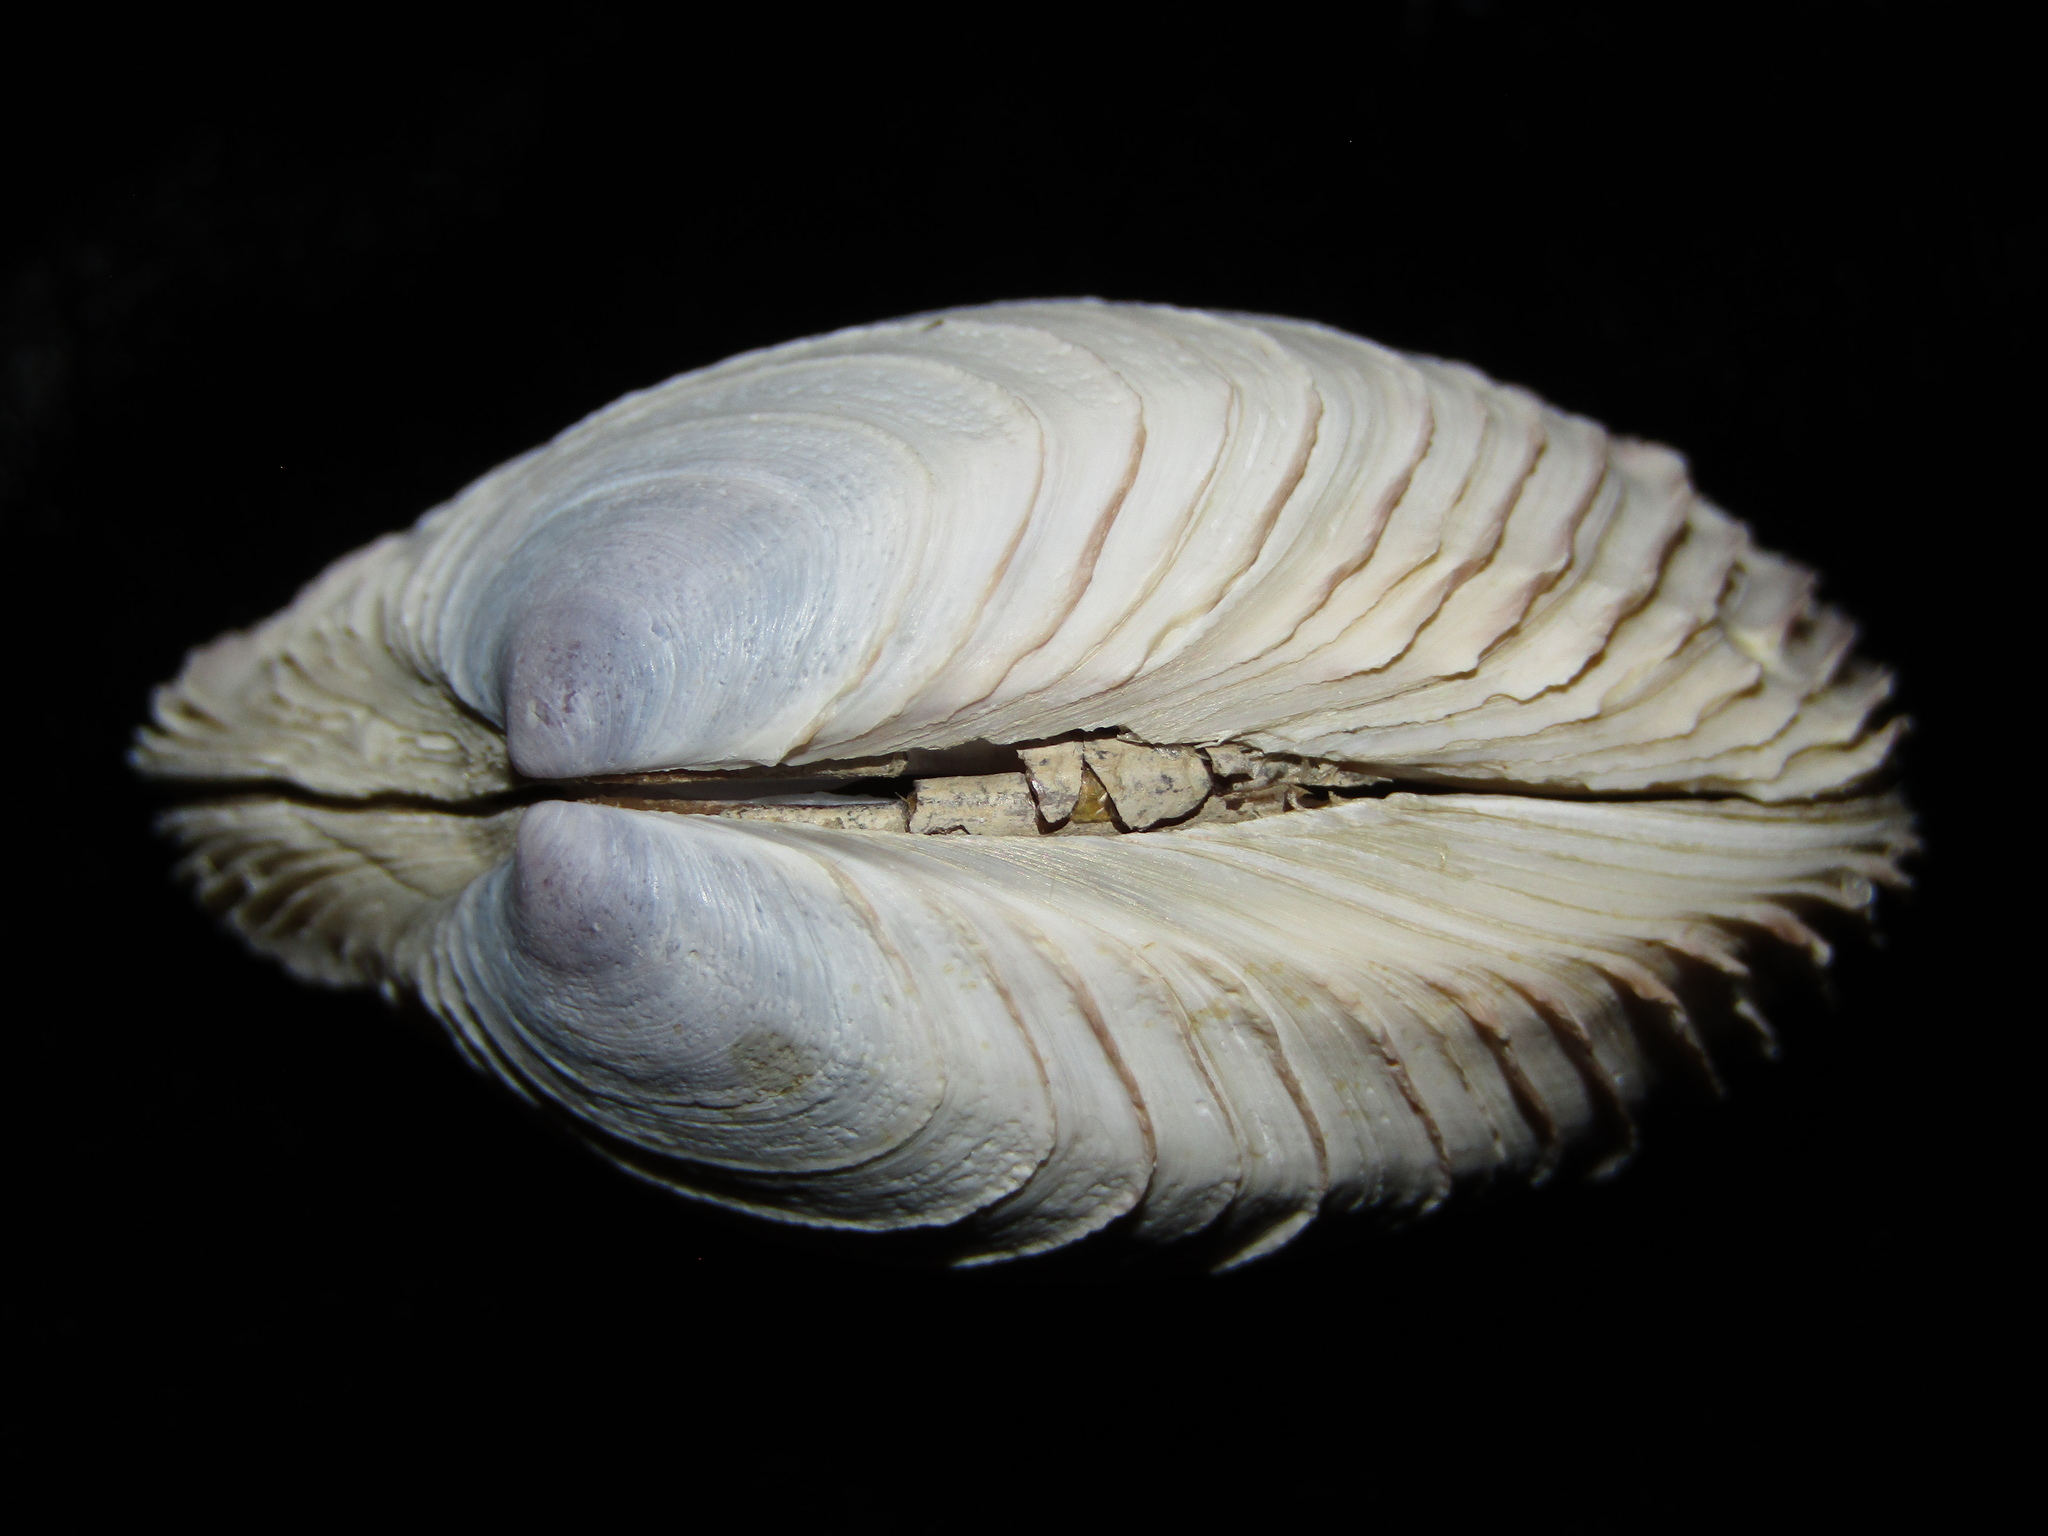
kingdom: Animalia
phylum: Mollusca
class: Bivalvia
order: Venerida
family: Veneridae
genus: Bassina
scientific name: Bassina yatei
